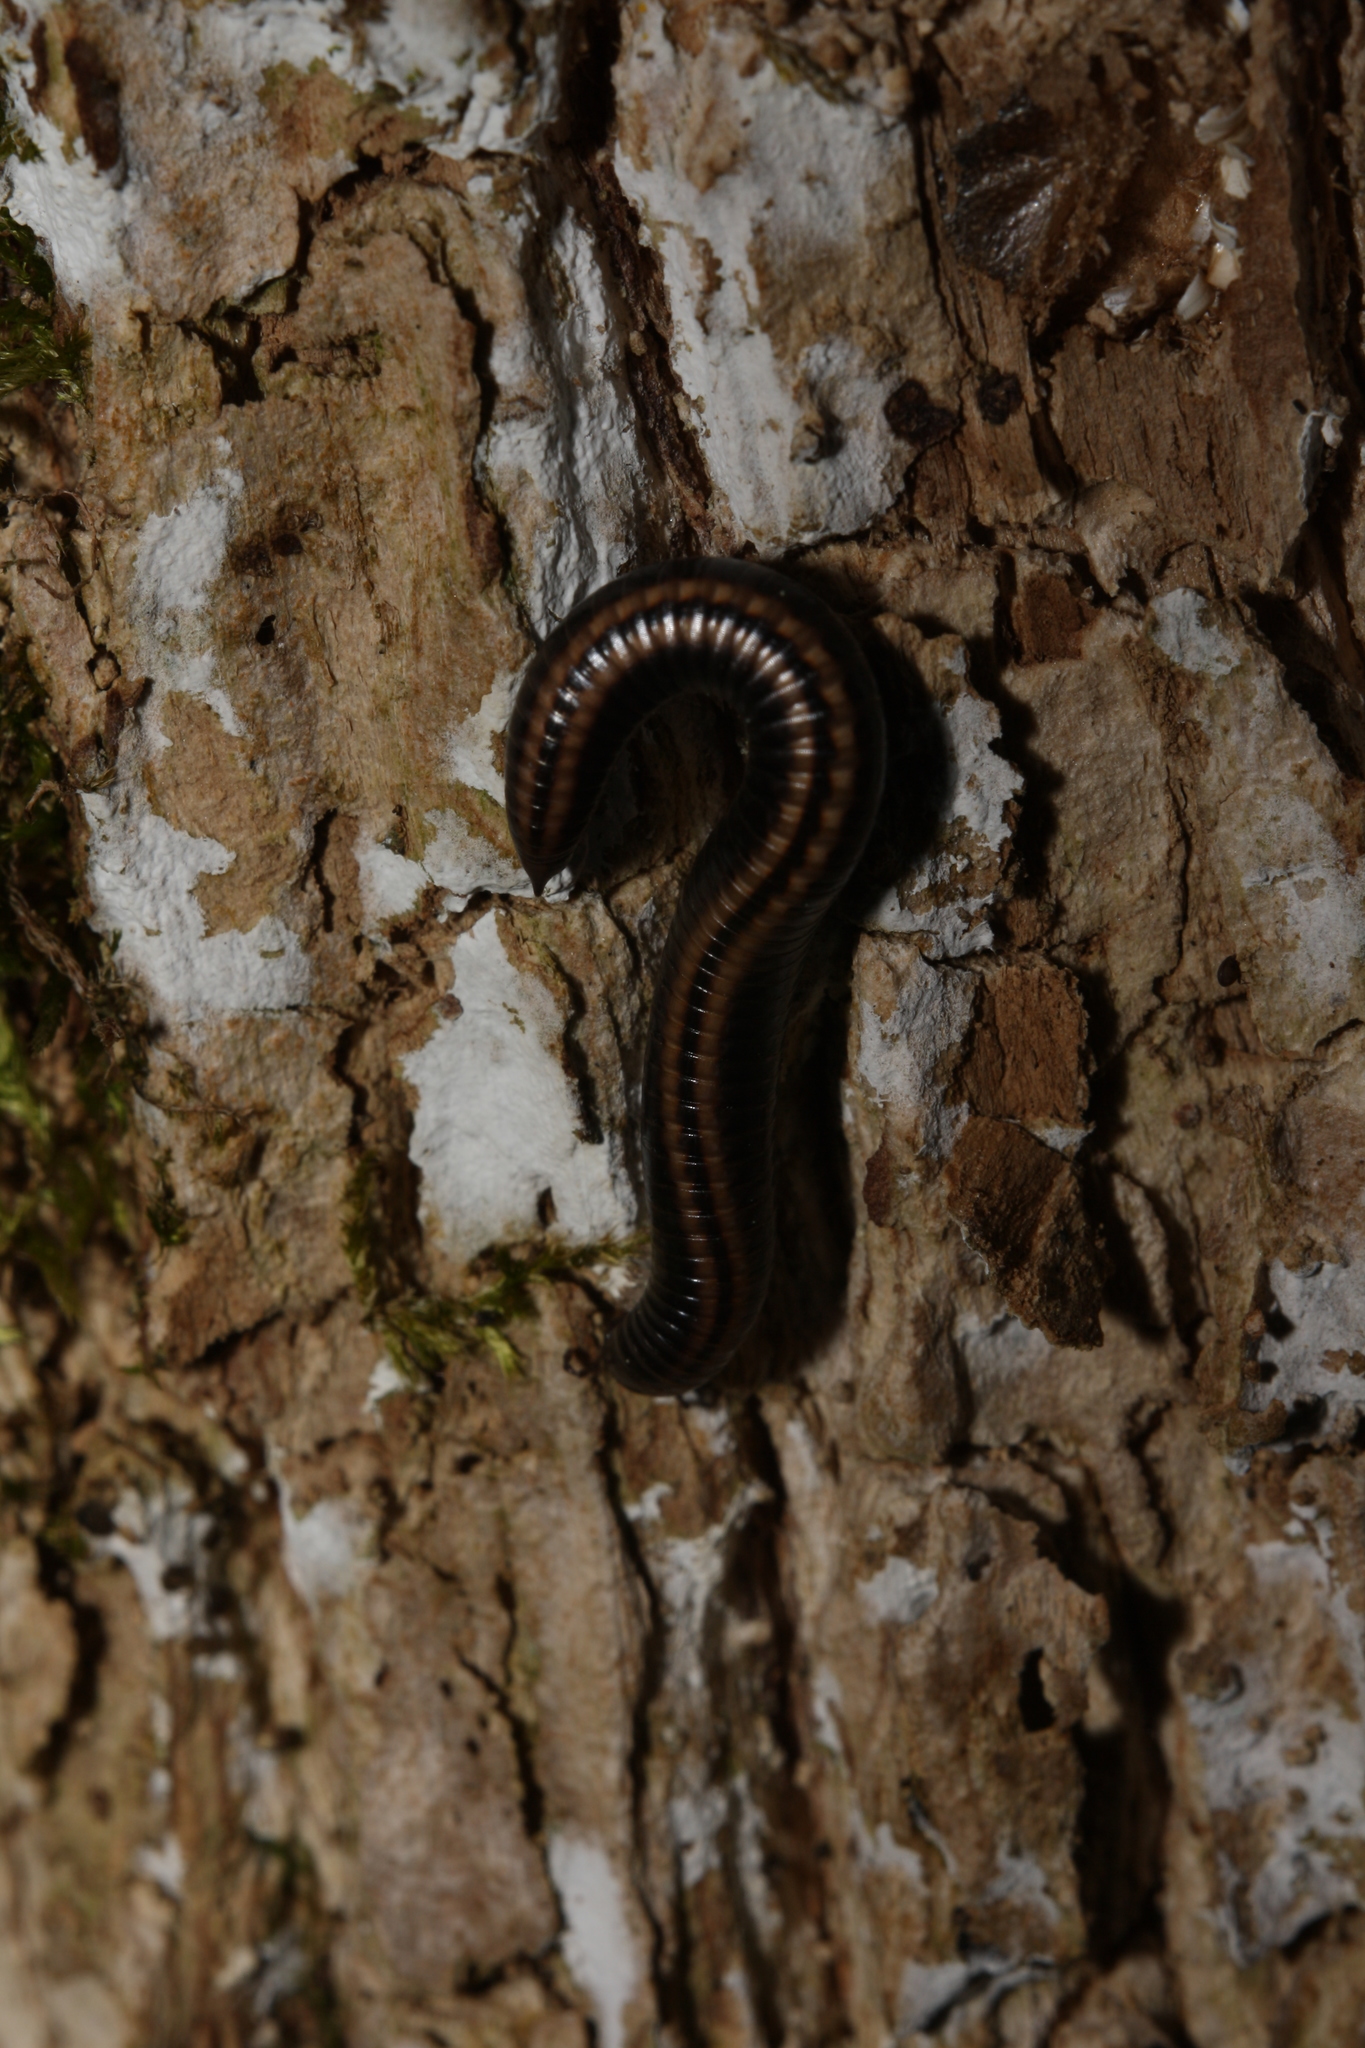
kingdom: Animalia
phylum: Arthropoda
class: Diplopoda
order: Julida
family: Julidae
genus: Ommatoiulus
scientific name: Ommatoiulus sabulosus
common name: Striped millipede
